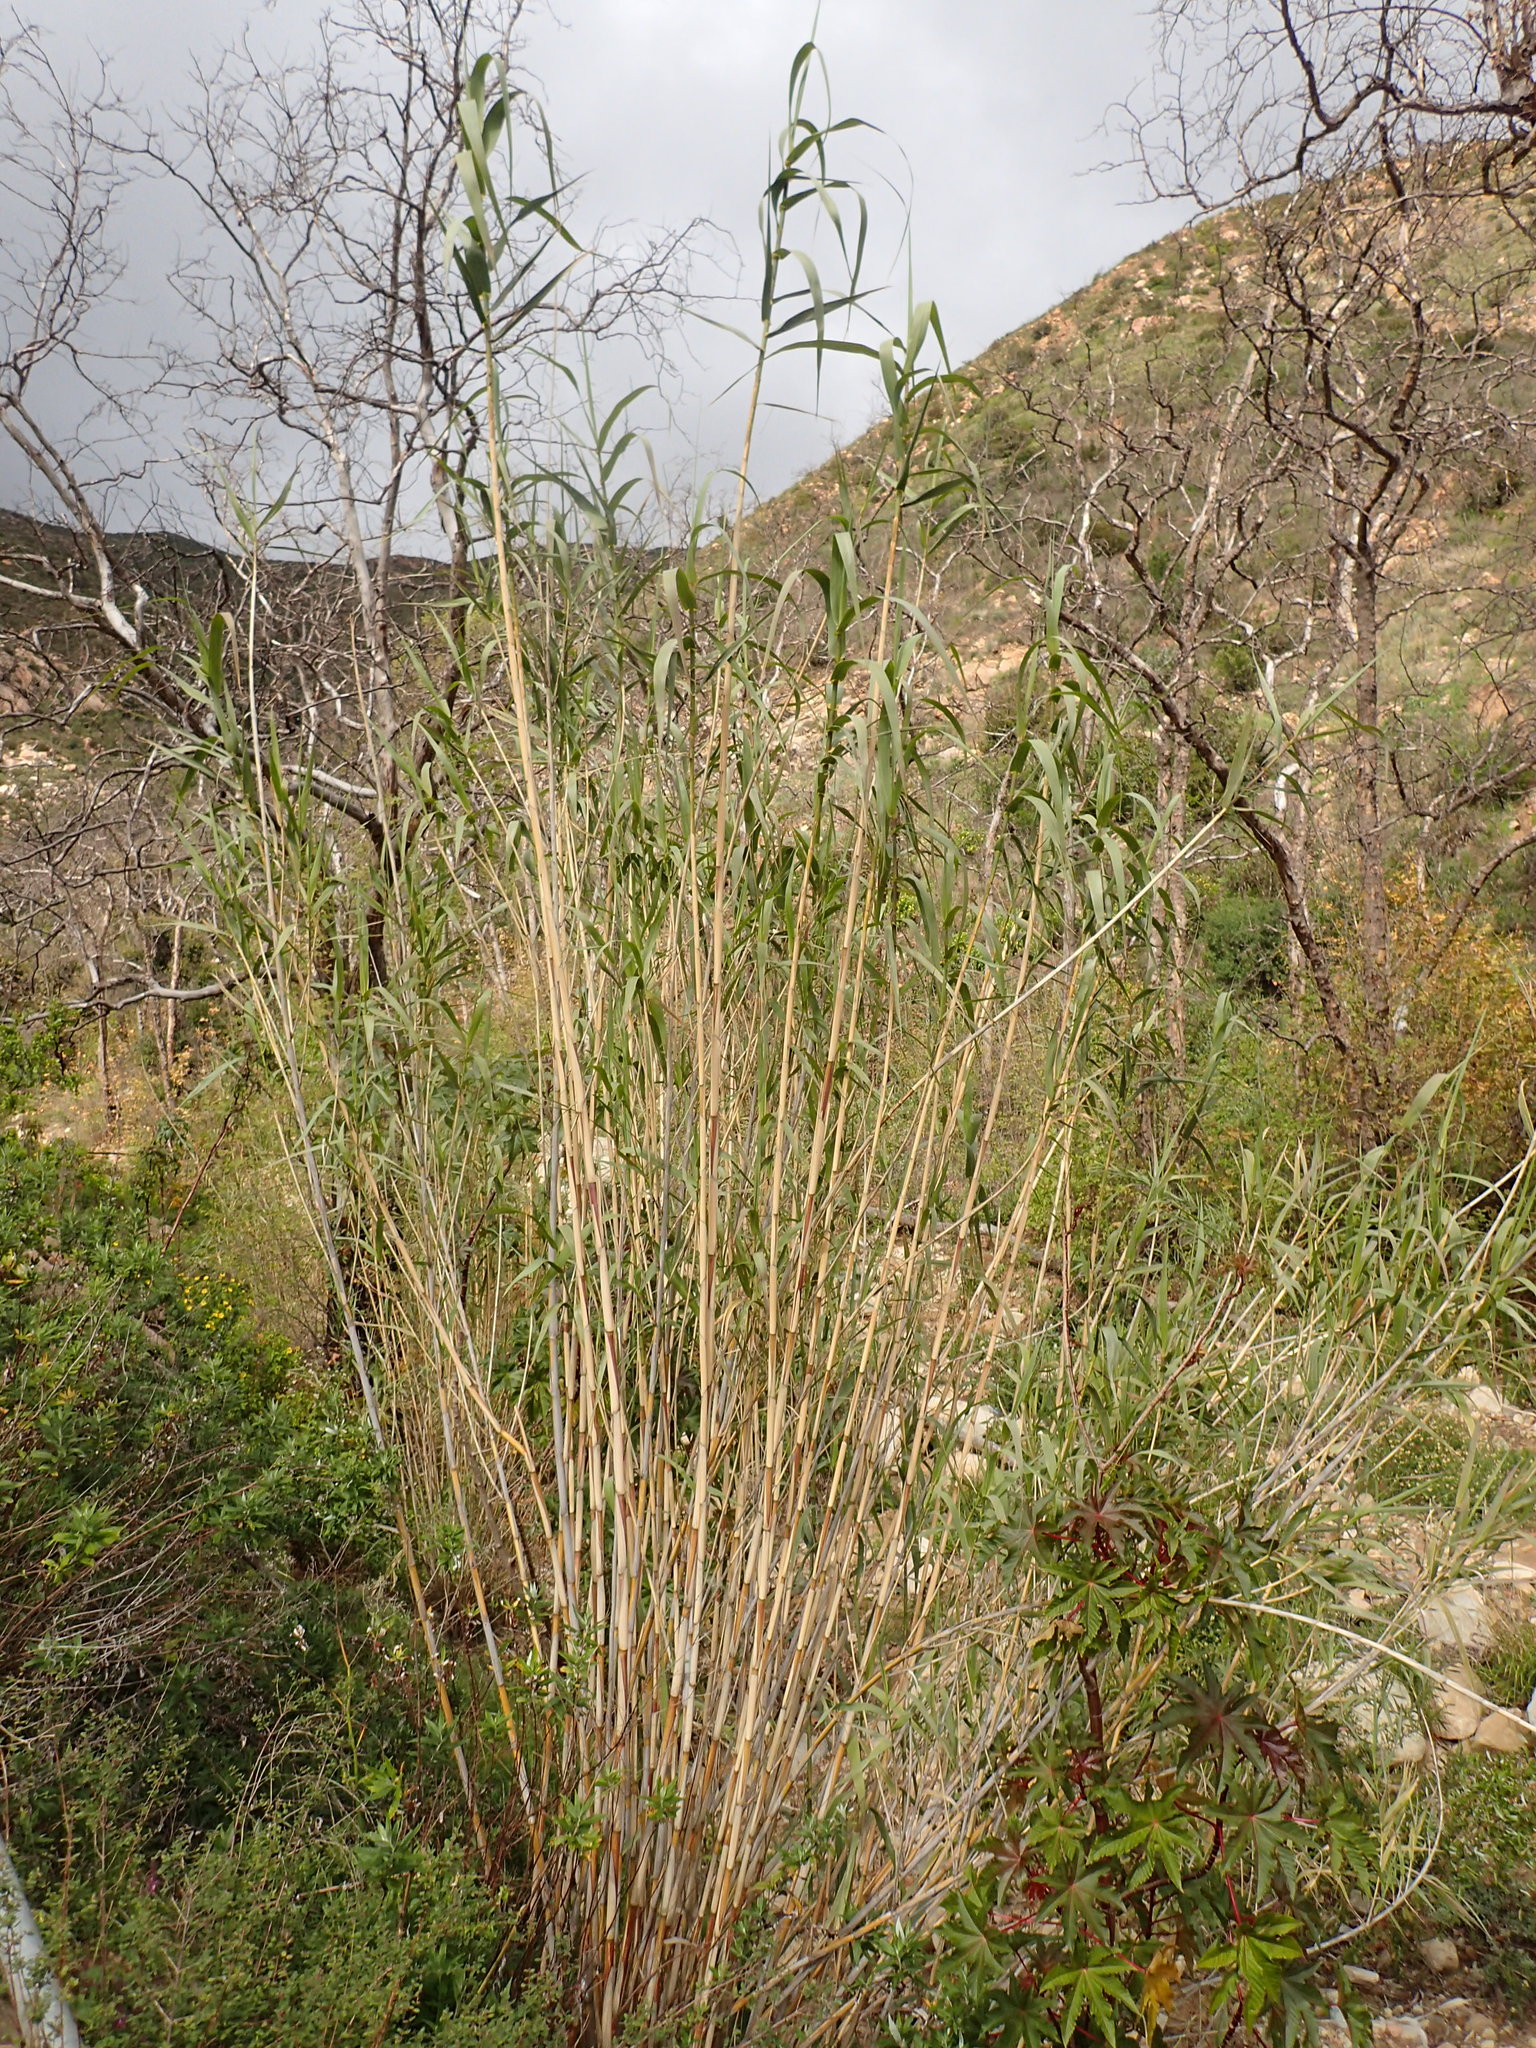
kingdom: Plantae
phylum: Tracheophyta
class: Liliopsida
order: Poales
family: Poaceae
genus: Arundo
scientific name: Arundo donax
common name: Giant reed
